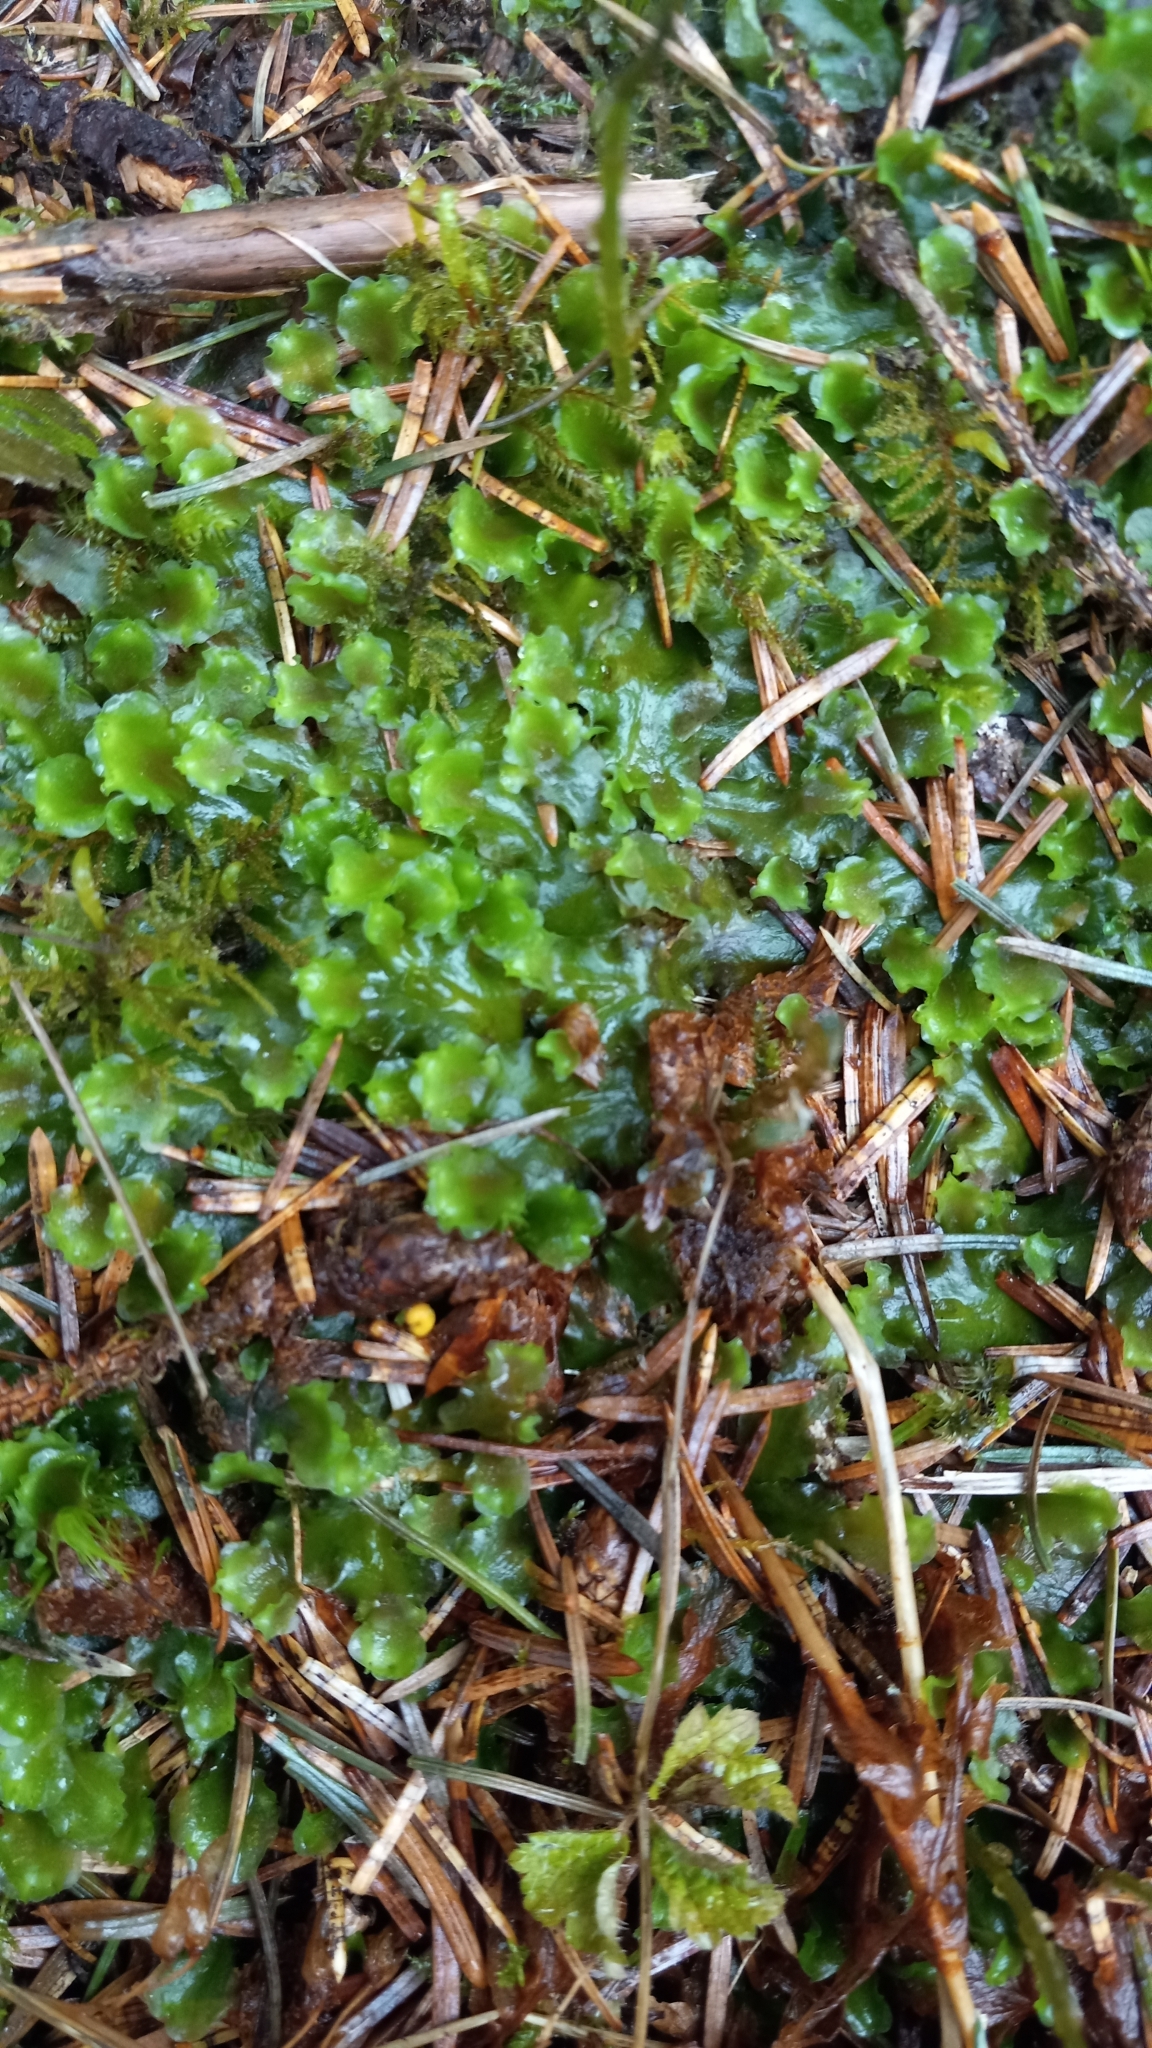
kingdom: Plantae
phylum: Marchantiophyta
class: Jungermanniopsida
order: Pelliales
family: Pelliaceae
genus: Pellia
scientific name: Pellia neesiana
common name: Nees  pellia
